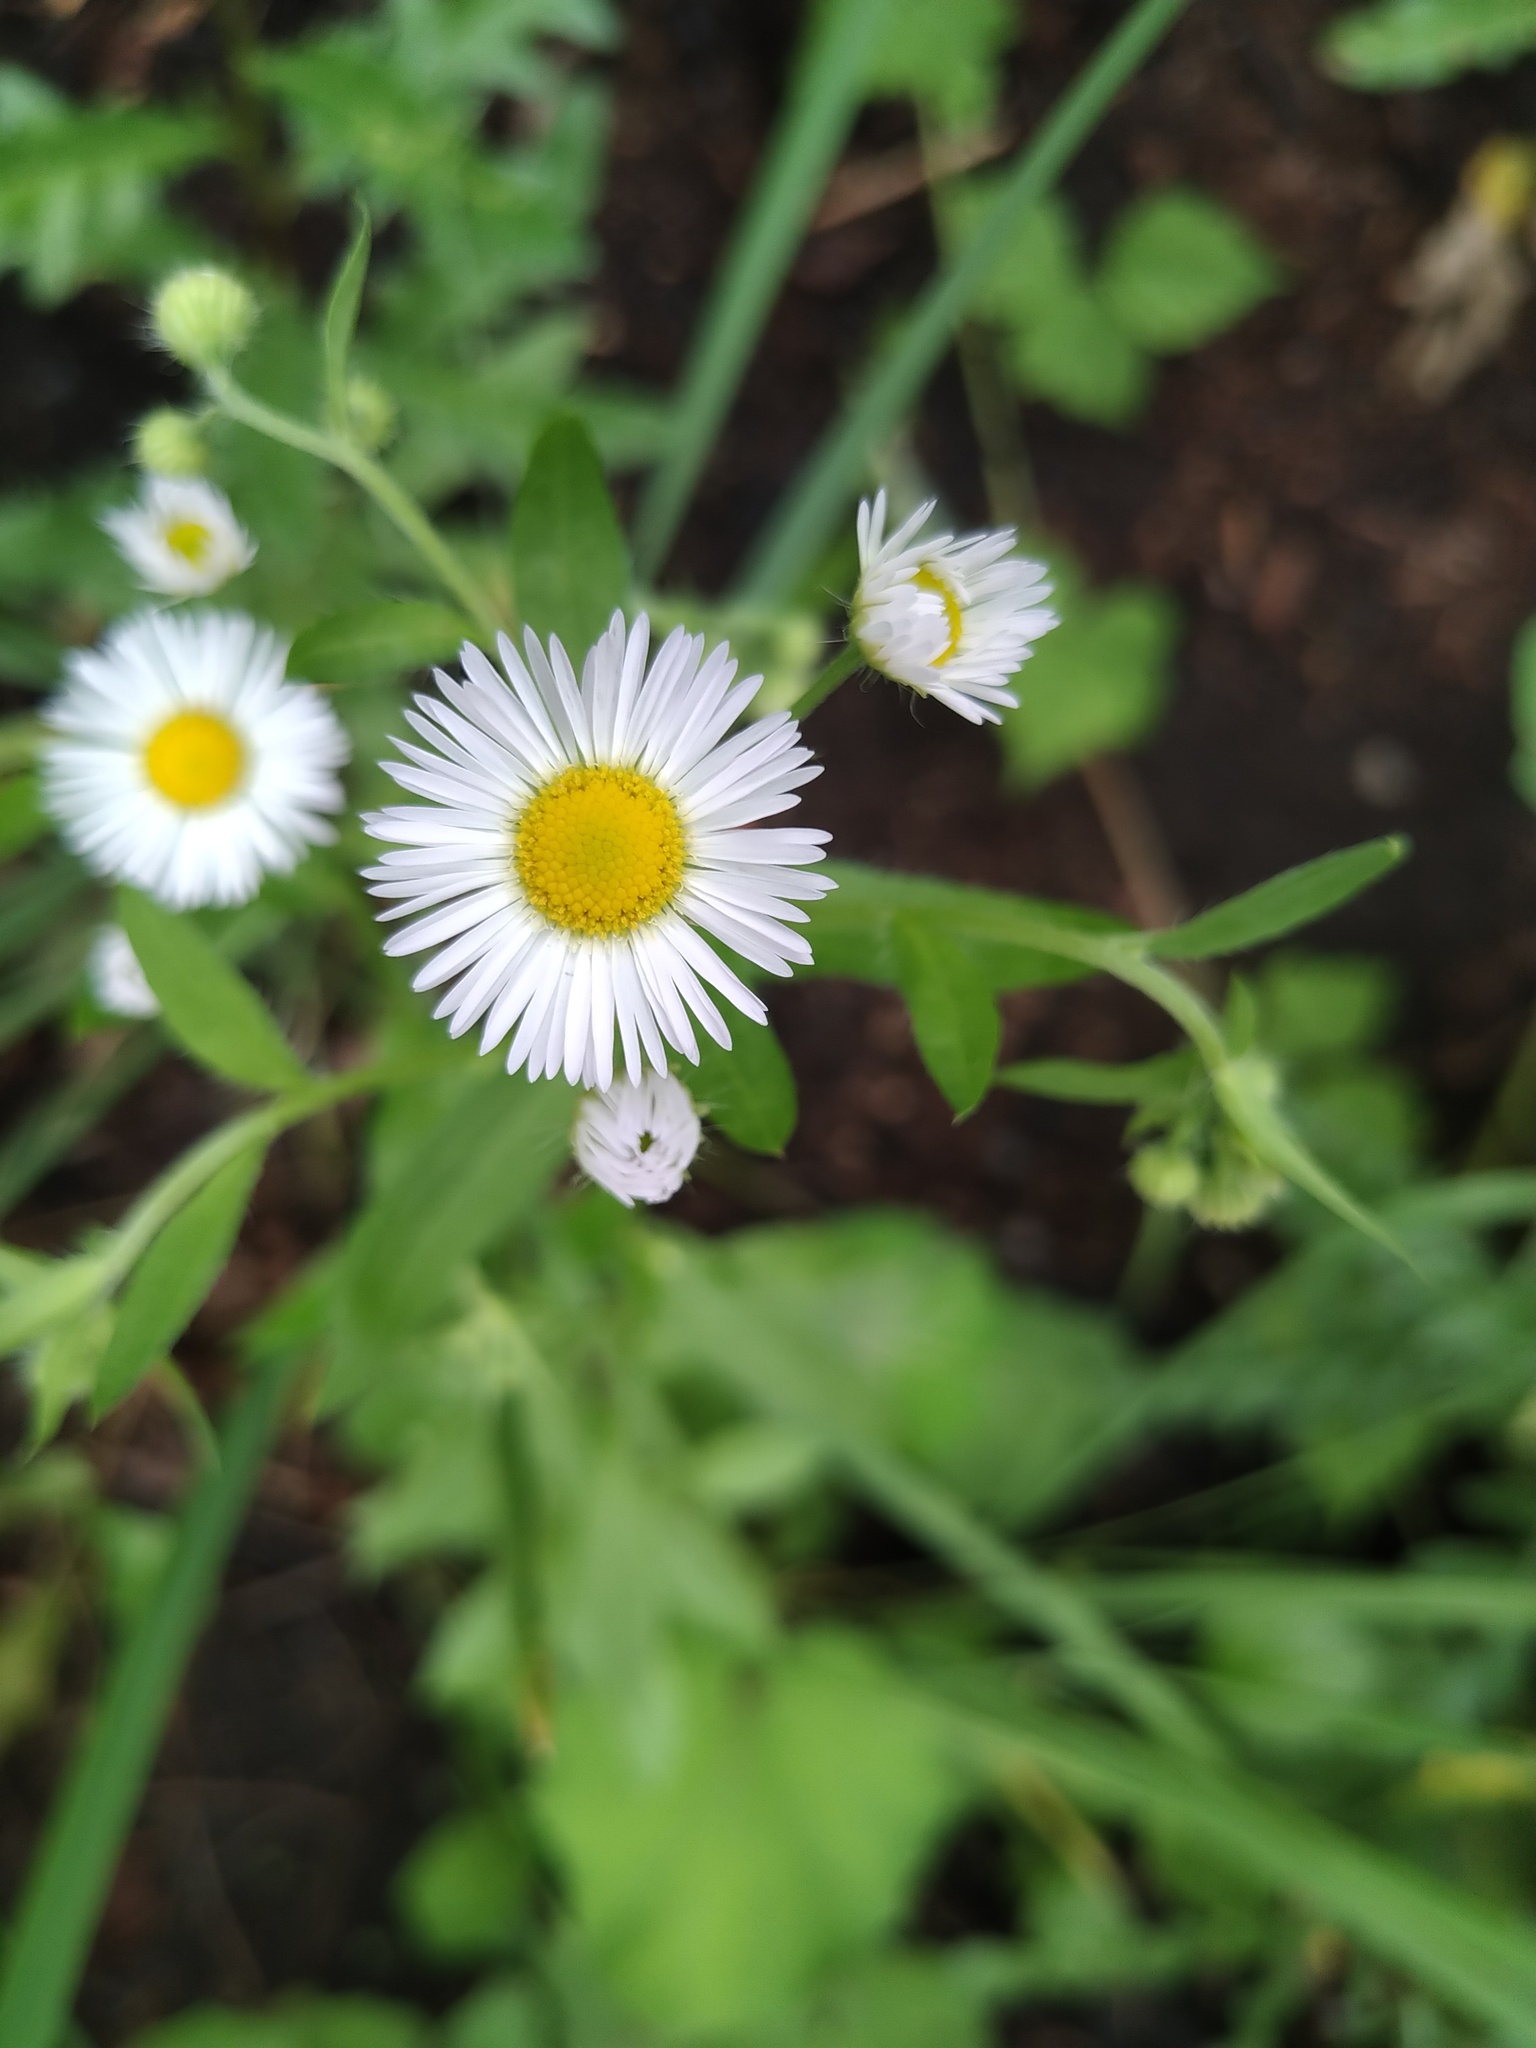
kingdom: Plantae
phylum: Tracheophyta
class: Magnoliopsida
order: Asterales
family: Asteraceae
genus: Erigeron
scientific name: Erigeron annuus
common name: Tall fleabane
